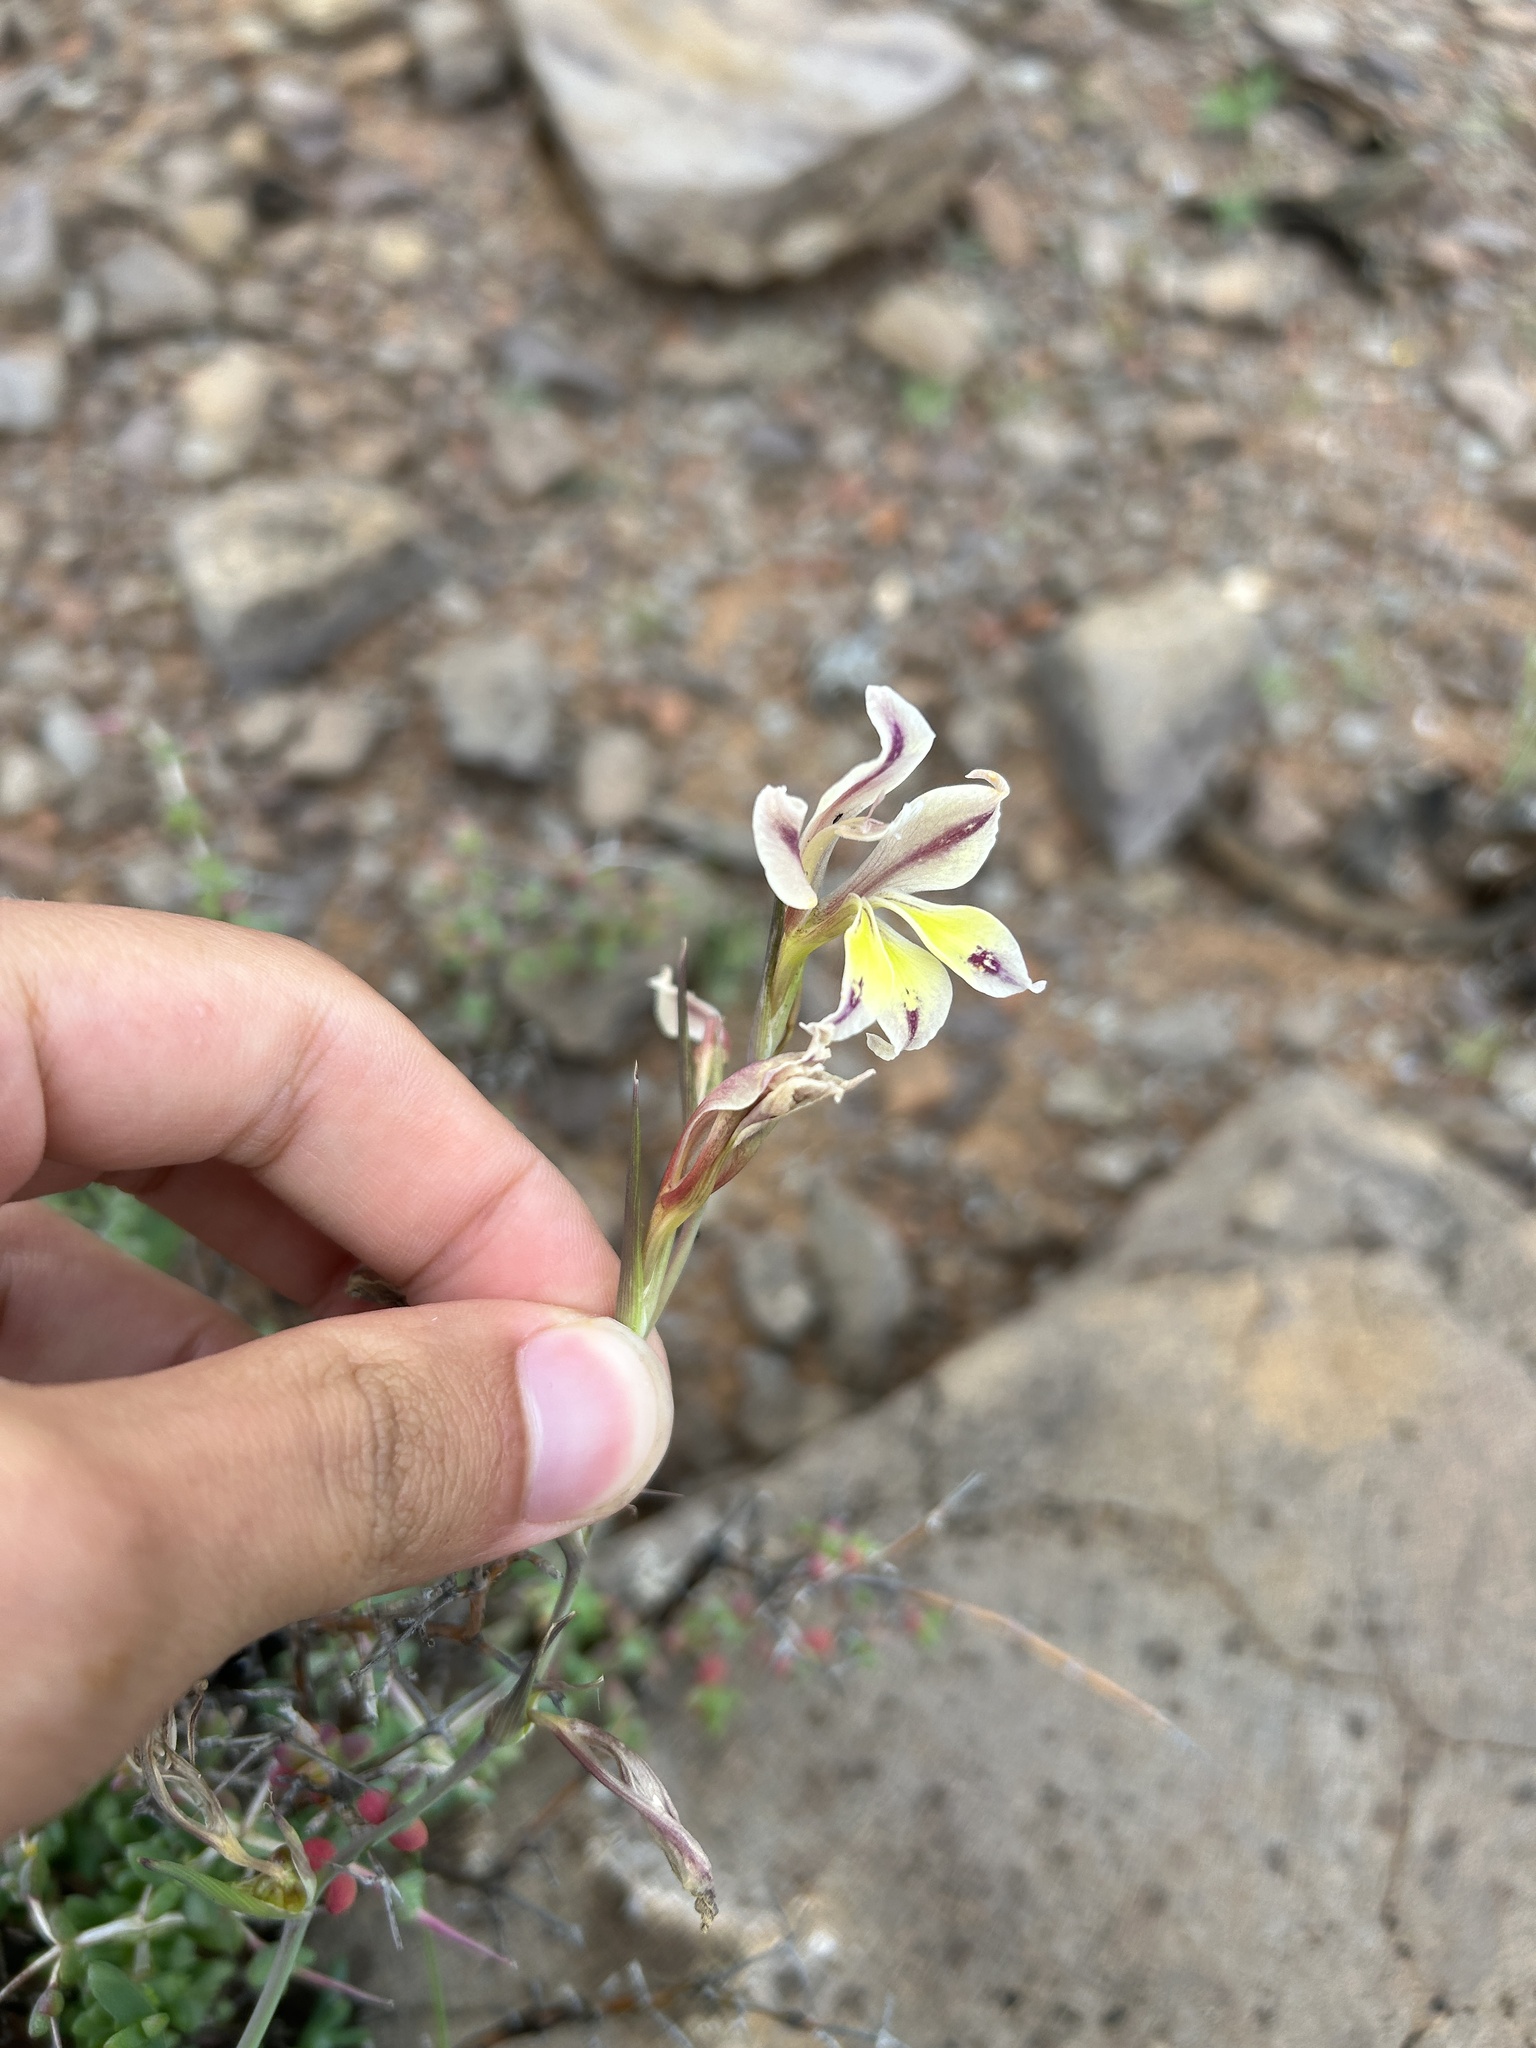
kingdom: Plantae
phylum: Tracheophyta
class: Liliopsida
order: Asparagales
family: Iridaceae
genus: Gladiolus
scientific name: Gladiolus scullyi
